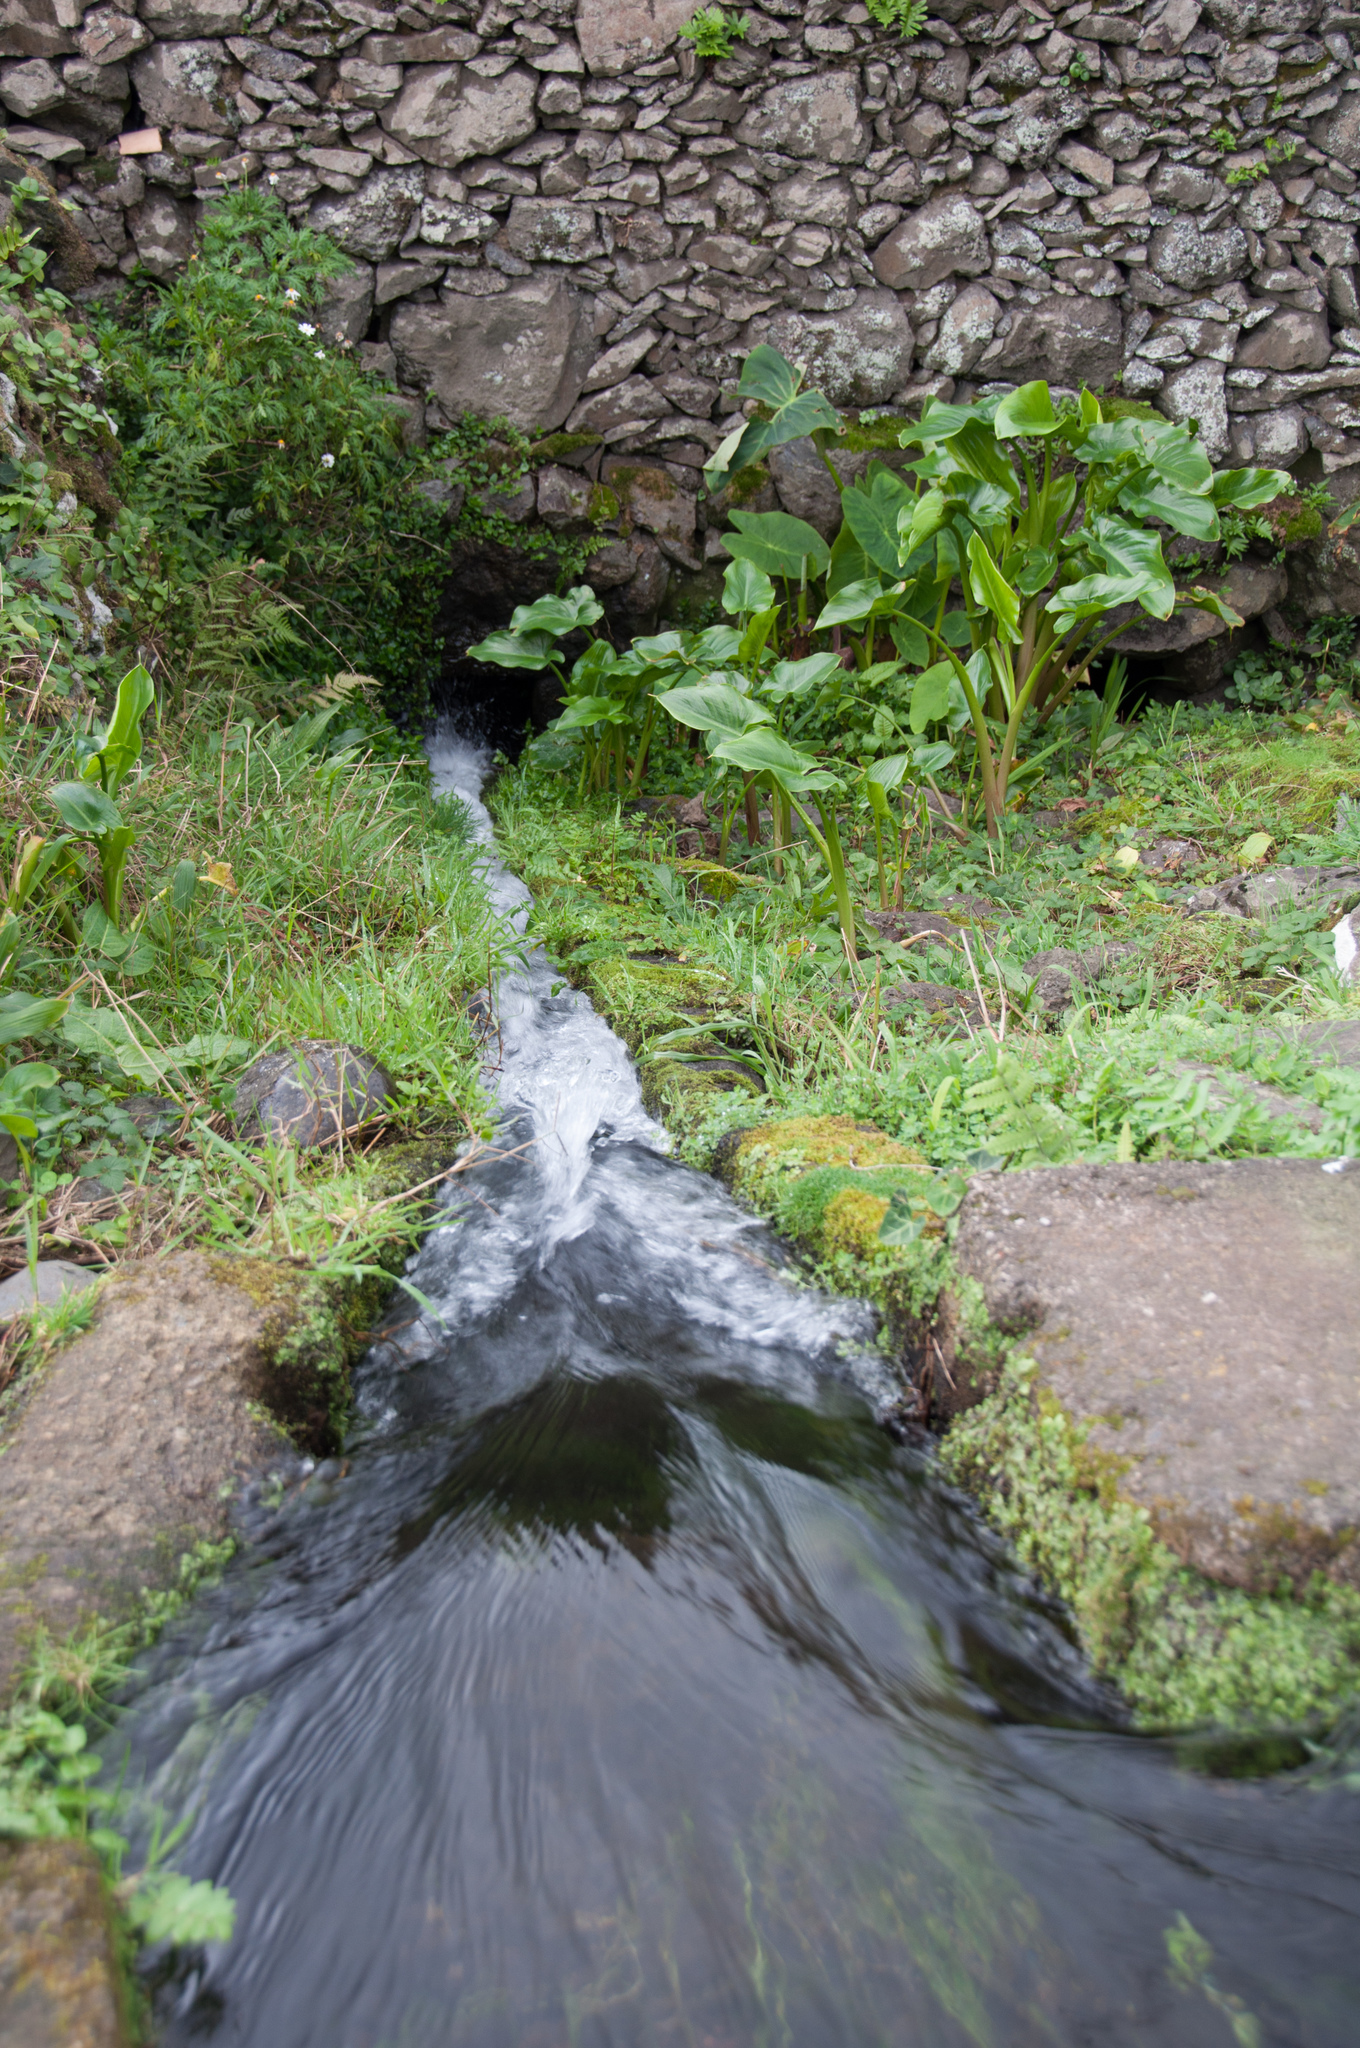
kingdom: Plantae
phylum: Tracheophyta
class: Liliopsida
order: Alismatales
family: Araceae
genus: Zantedeschia
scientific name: Zantedeschia aethiopica
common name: Altar-lily
